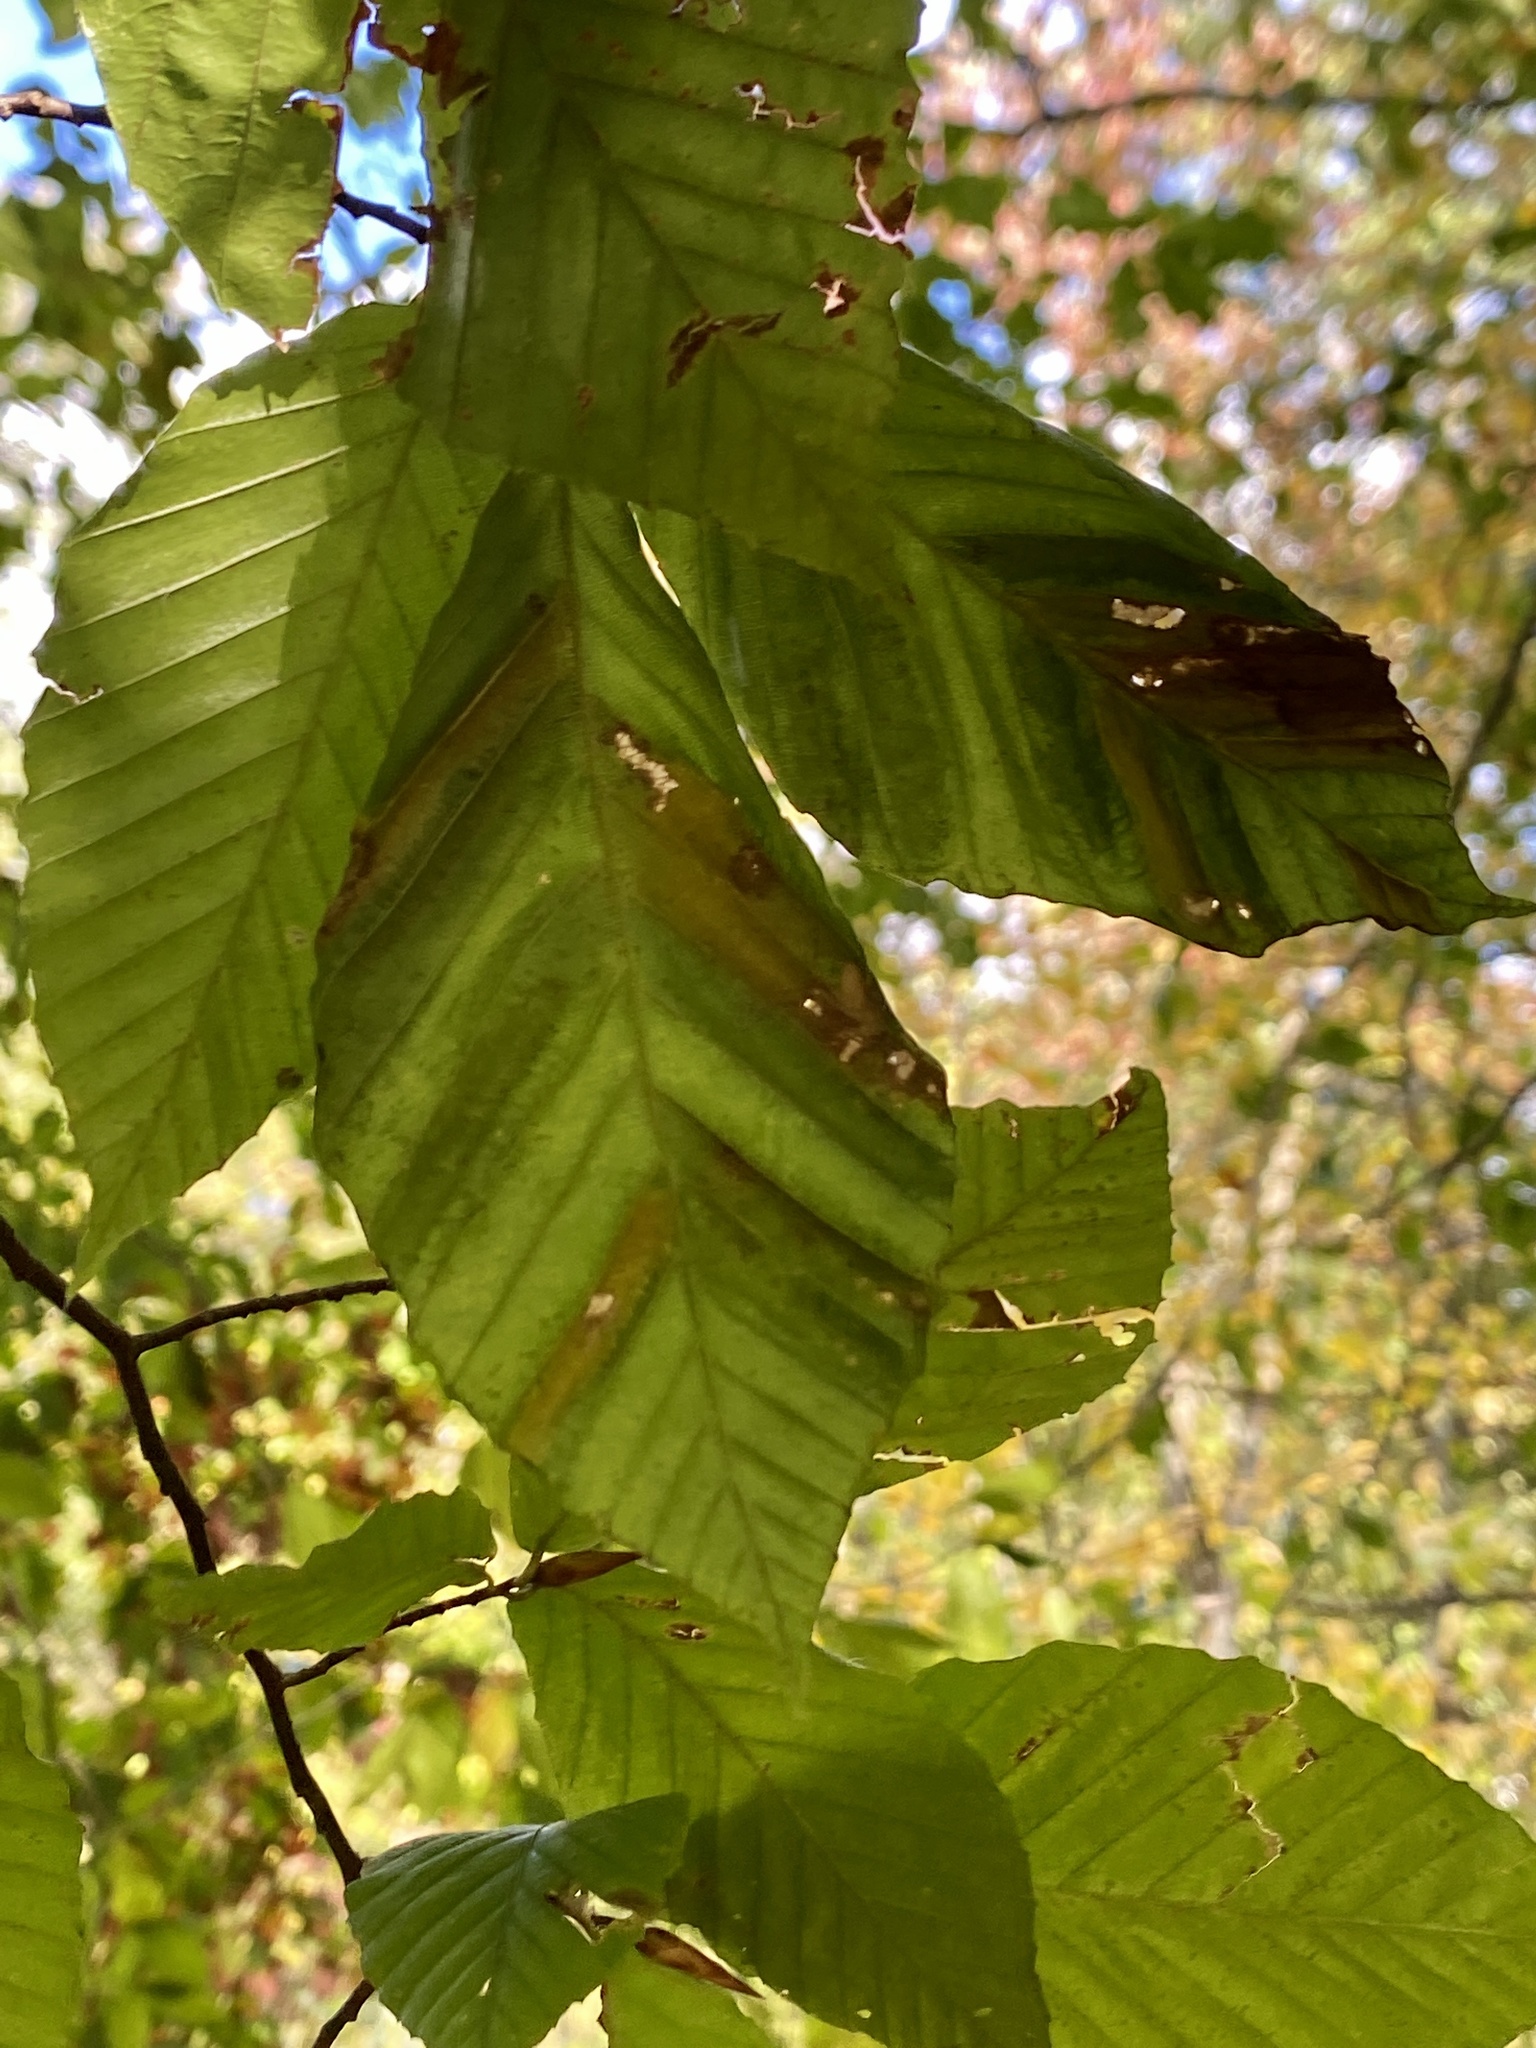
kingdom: Animalia
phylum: Nematoda
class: Chromadorea
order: Rhabditida
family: Anguinidae
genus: Litylenchus
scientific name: Litylenchus crenatae
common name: Beech leaf disease
